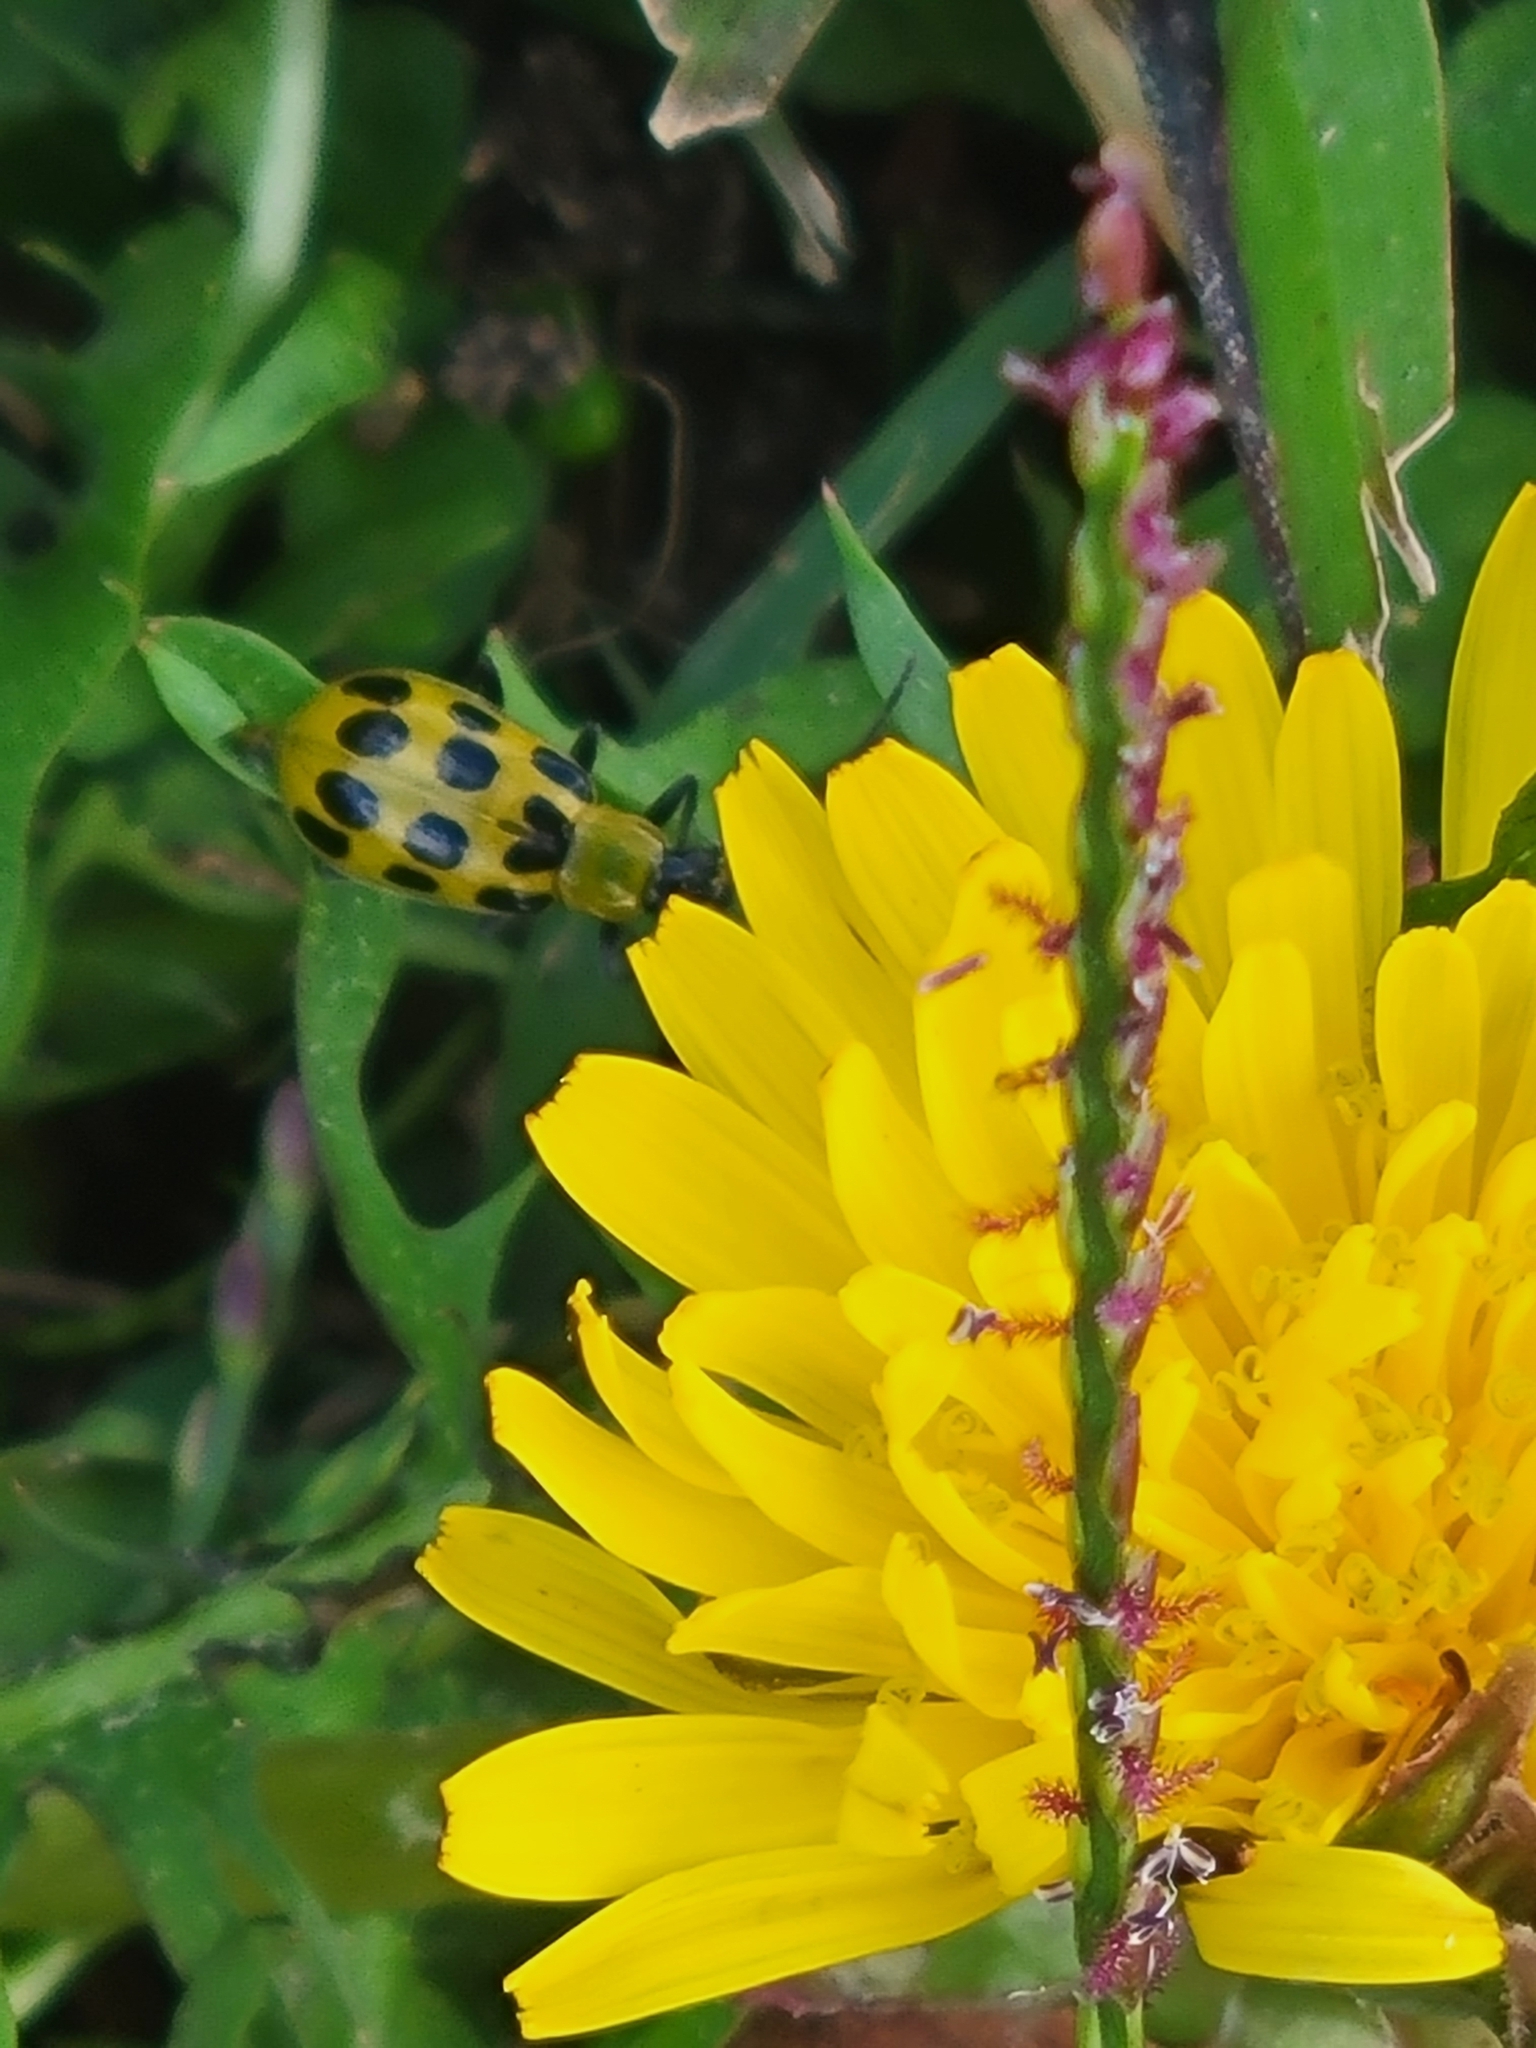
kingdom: Animalia
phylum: Arthropoda
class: Insecta
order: Coleoptera
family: Chrysomelidae
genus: Diabrotica
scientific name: Diabrotica undecimpunctata
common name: Spotted cucumber beetle
